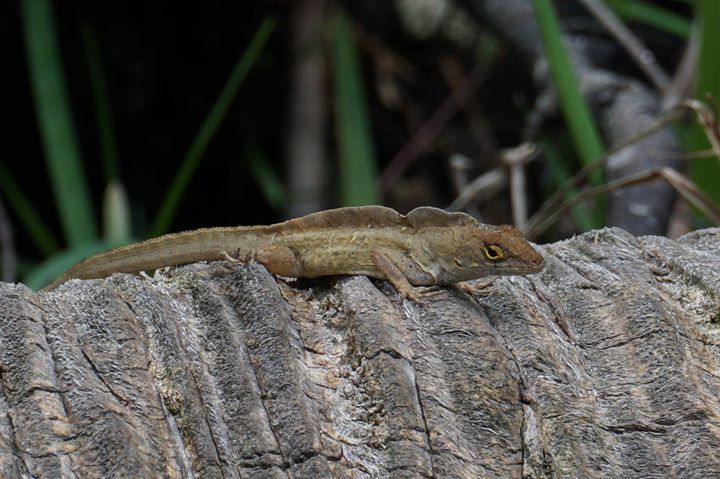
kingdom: Animalia
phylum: Chordata
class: Squamata
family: Dactyloidae
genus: Anolis
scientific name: Anolis sagrei
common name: Brown anole
